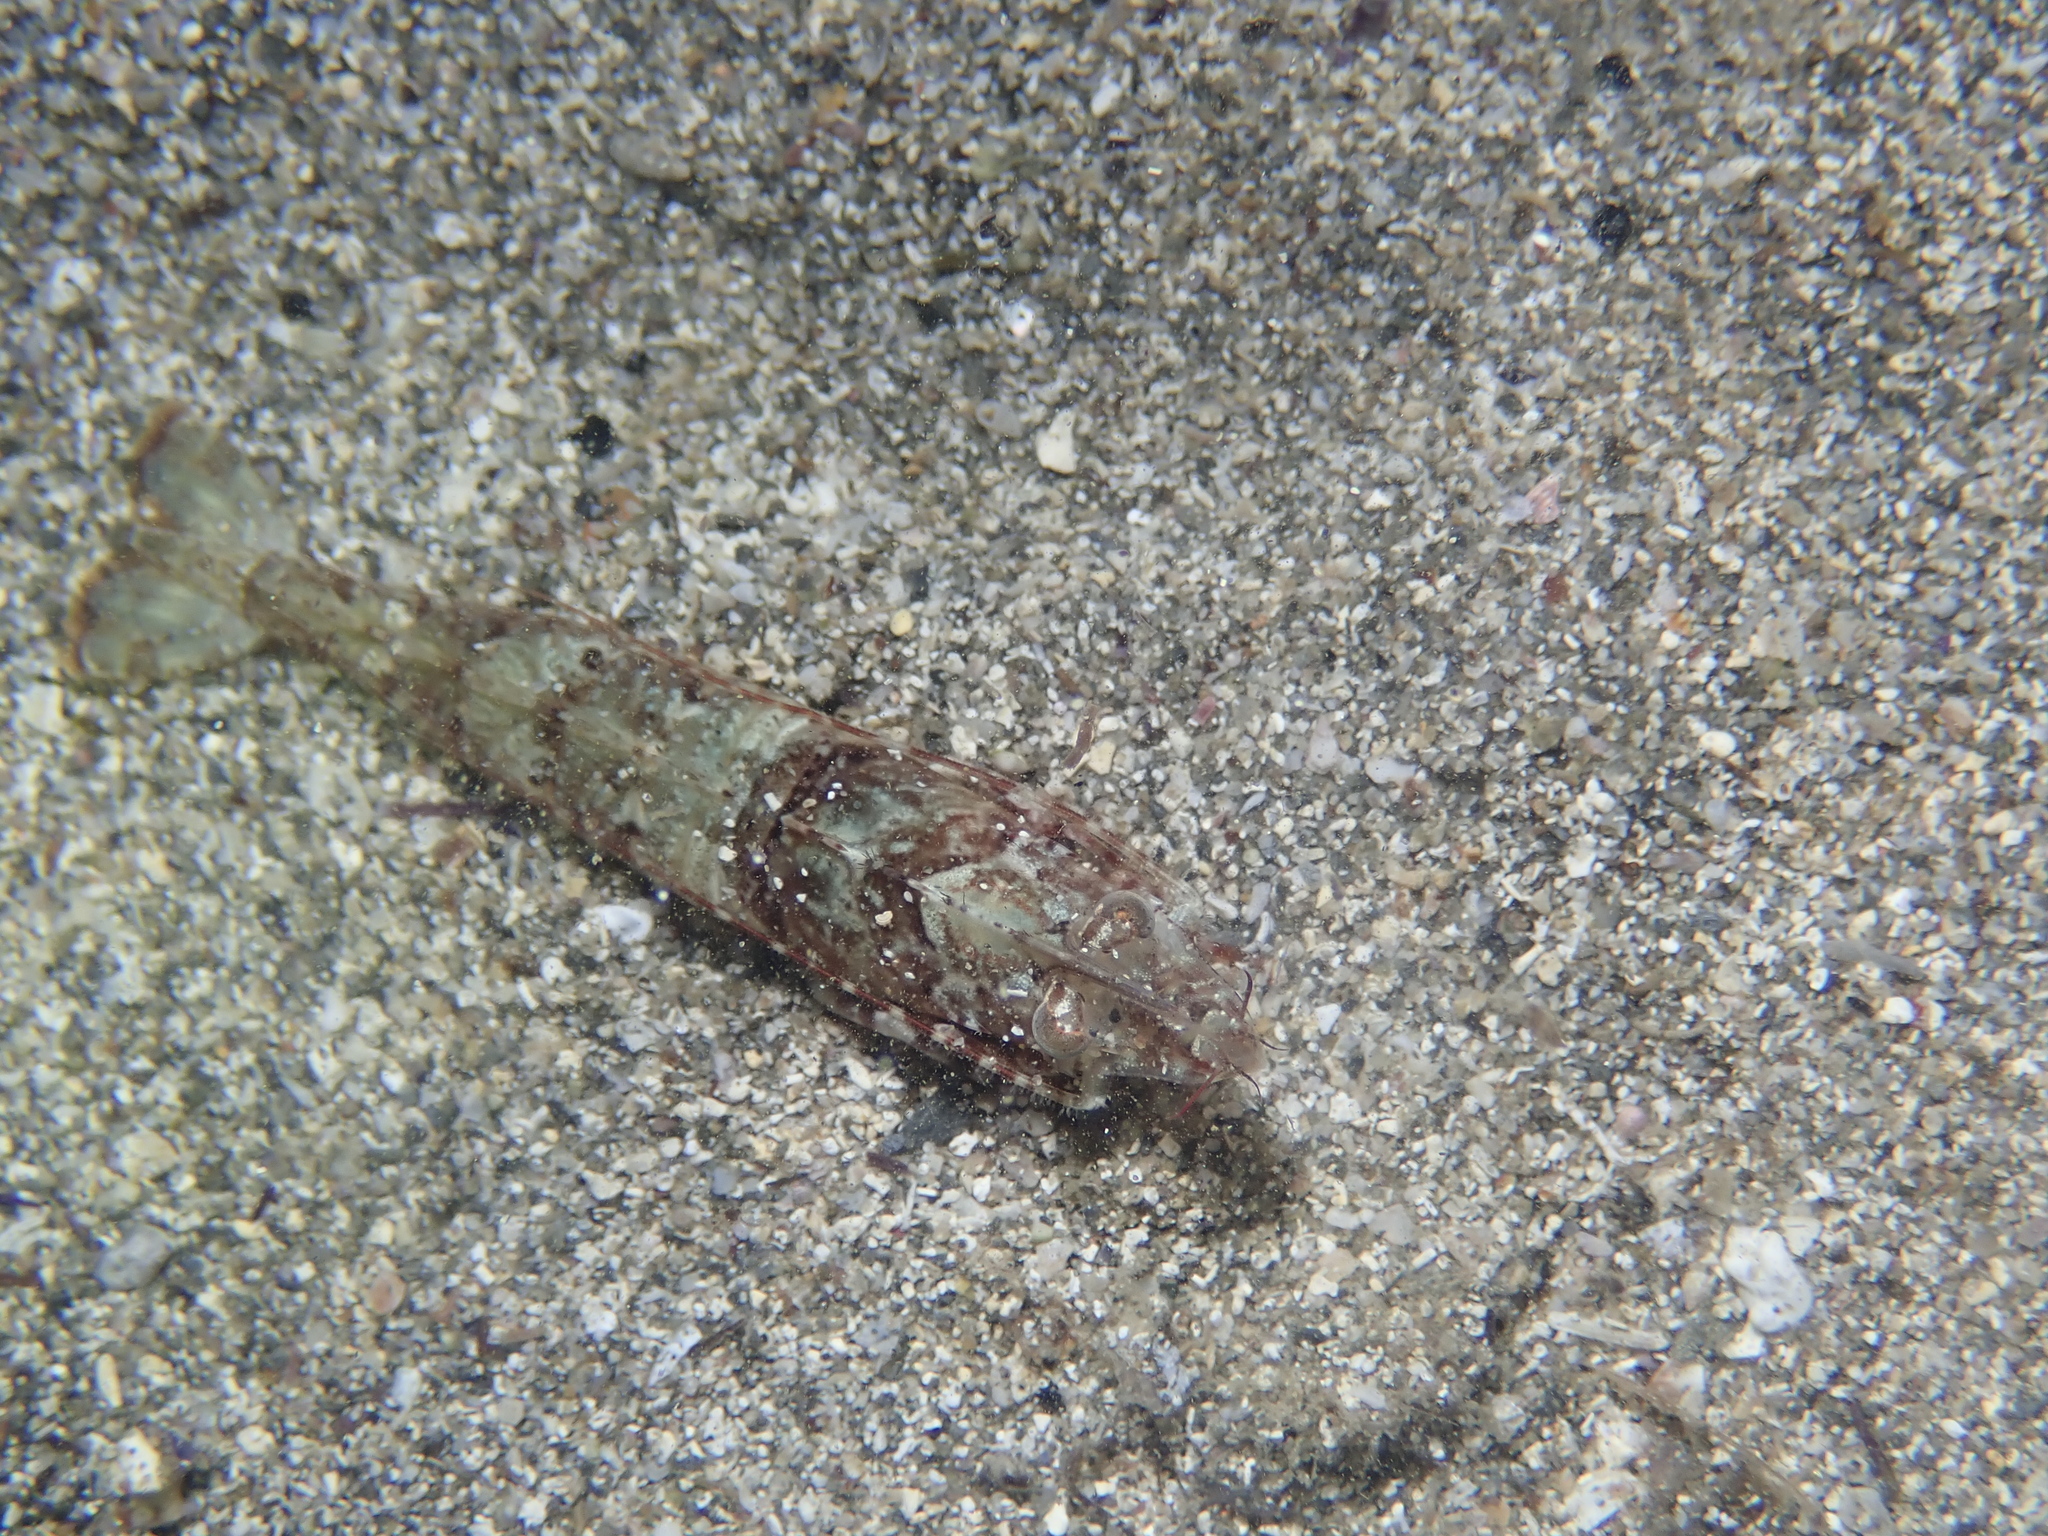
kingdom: Animalia
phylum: Arthropoda
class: Malacostraca
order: Decapoda
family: Sicyoniidae
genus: Sicyonia
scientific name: Sicyonia carinata
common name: Mediterranean rock shrimp
